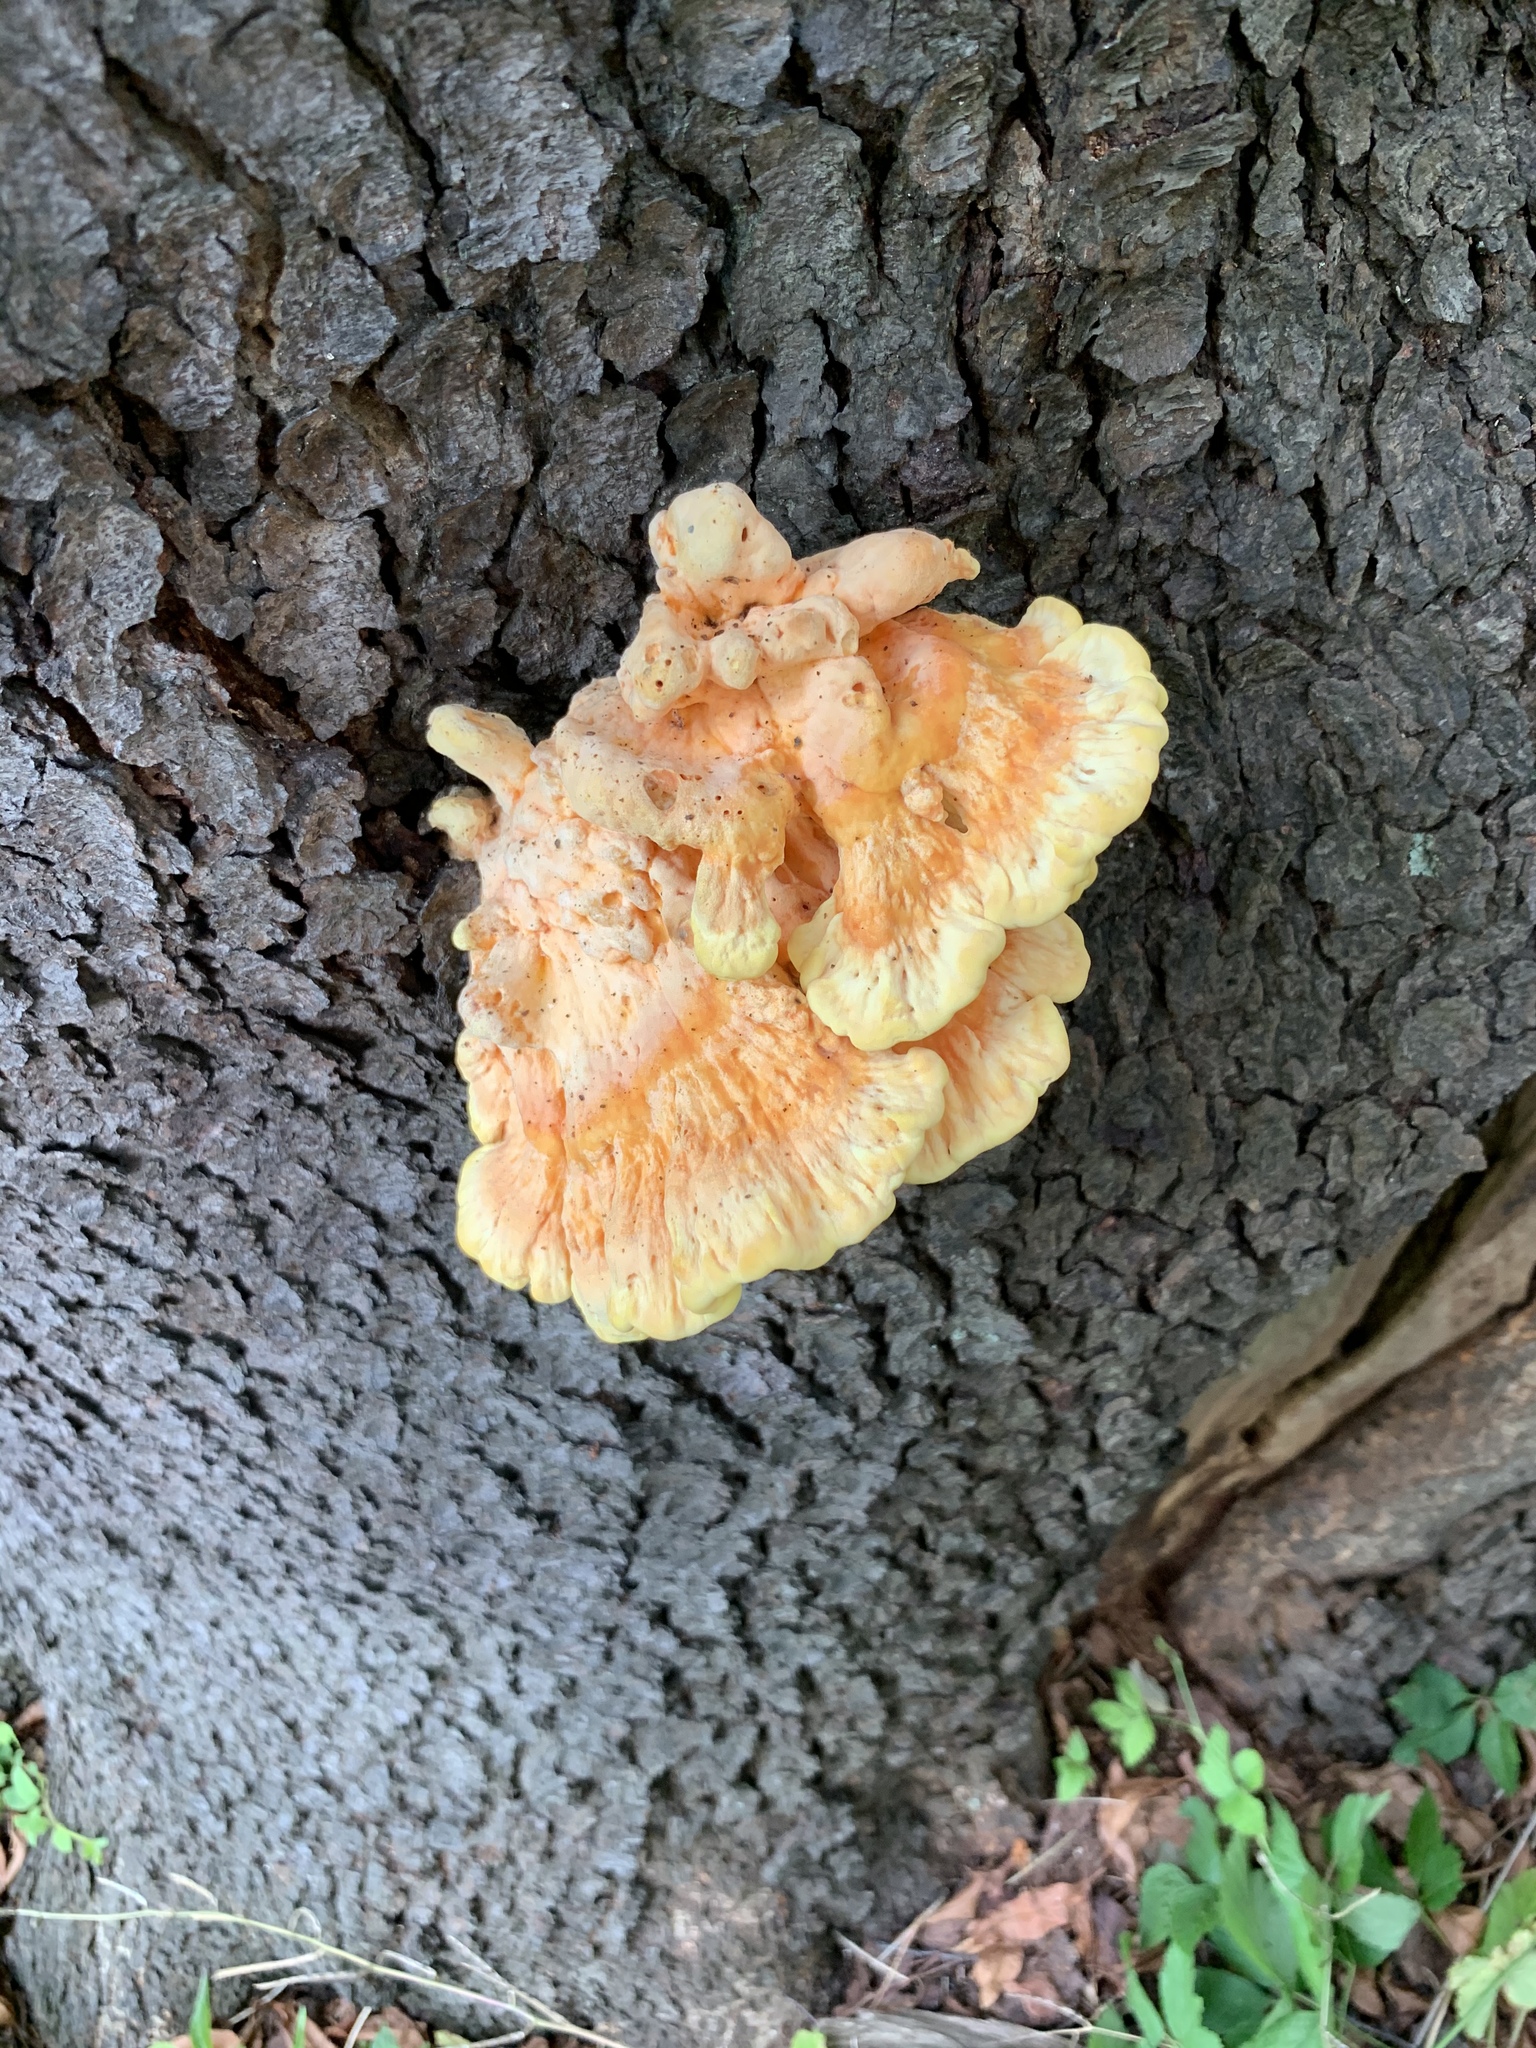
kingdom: Fungi
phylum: Basidiomycota
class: Agaricomycetes
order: Polyporales
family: Laetiporaceae
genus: Laetiporus
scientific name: Laetiporus sulphureus
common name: Chicken of the woods
